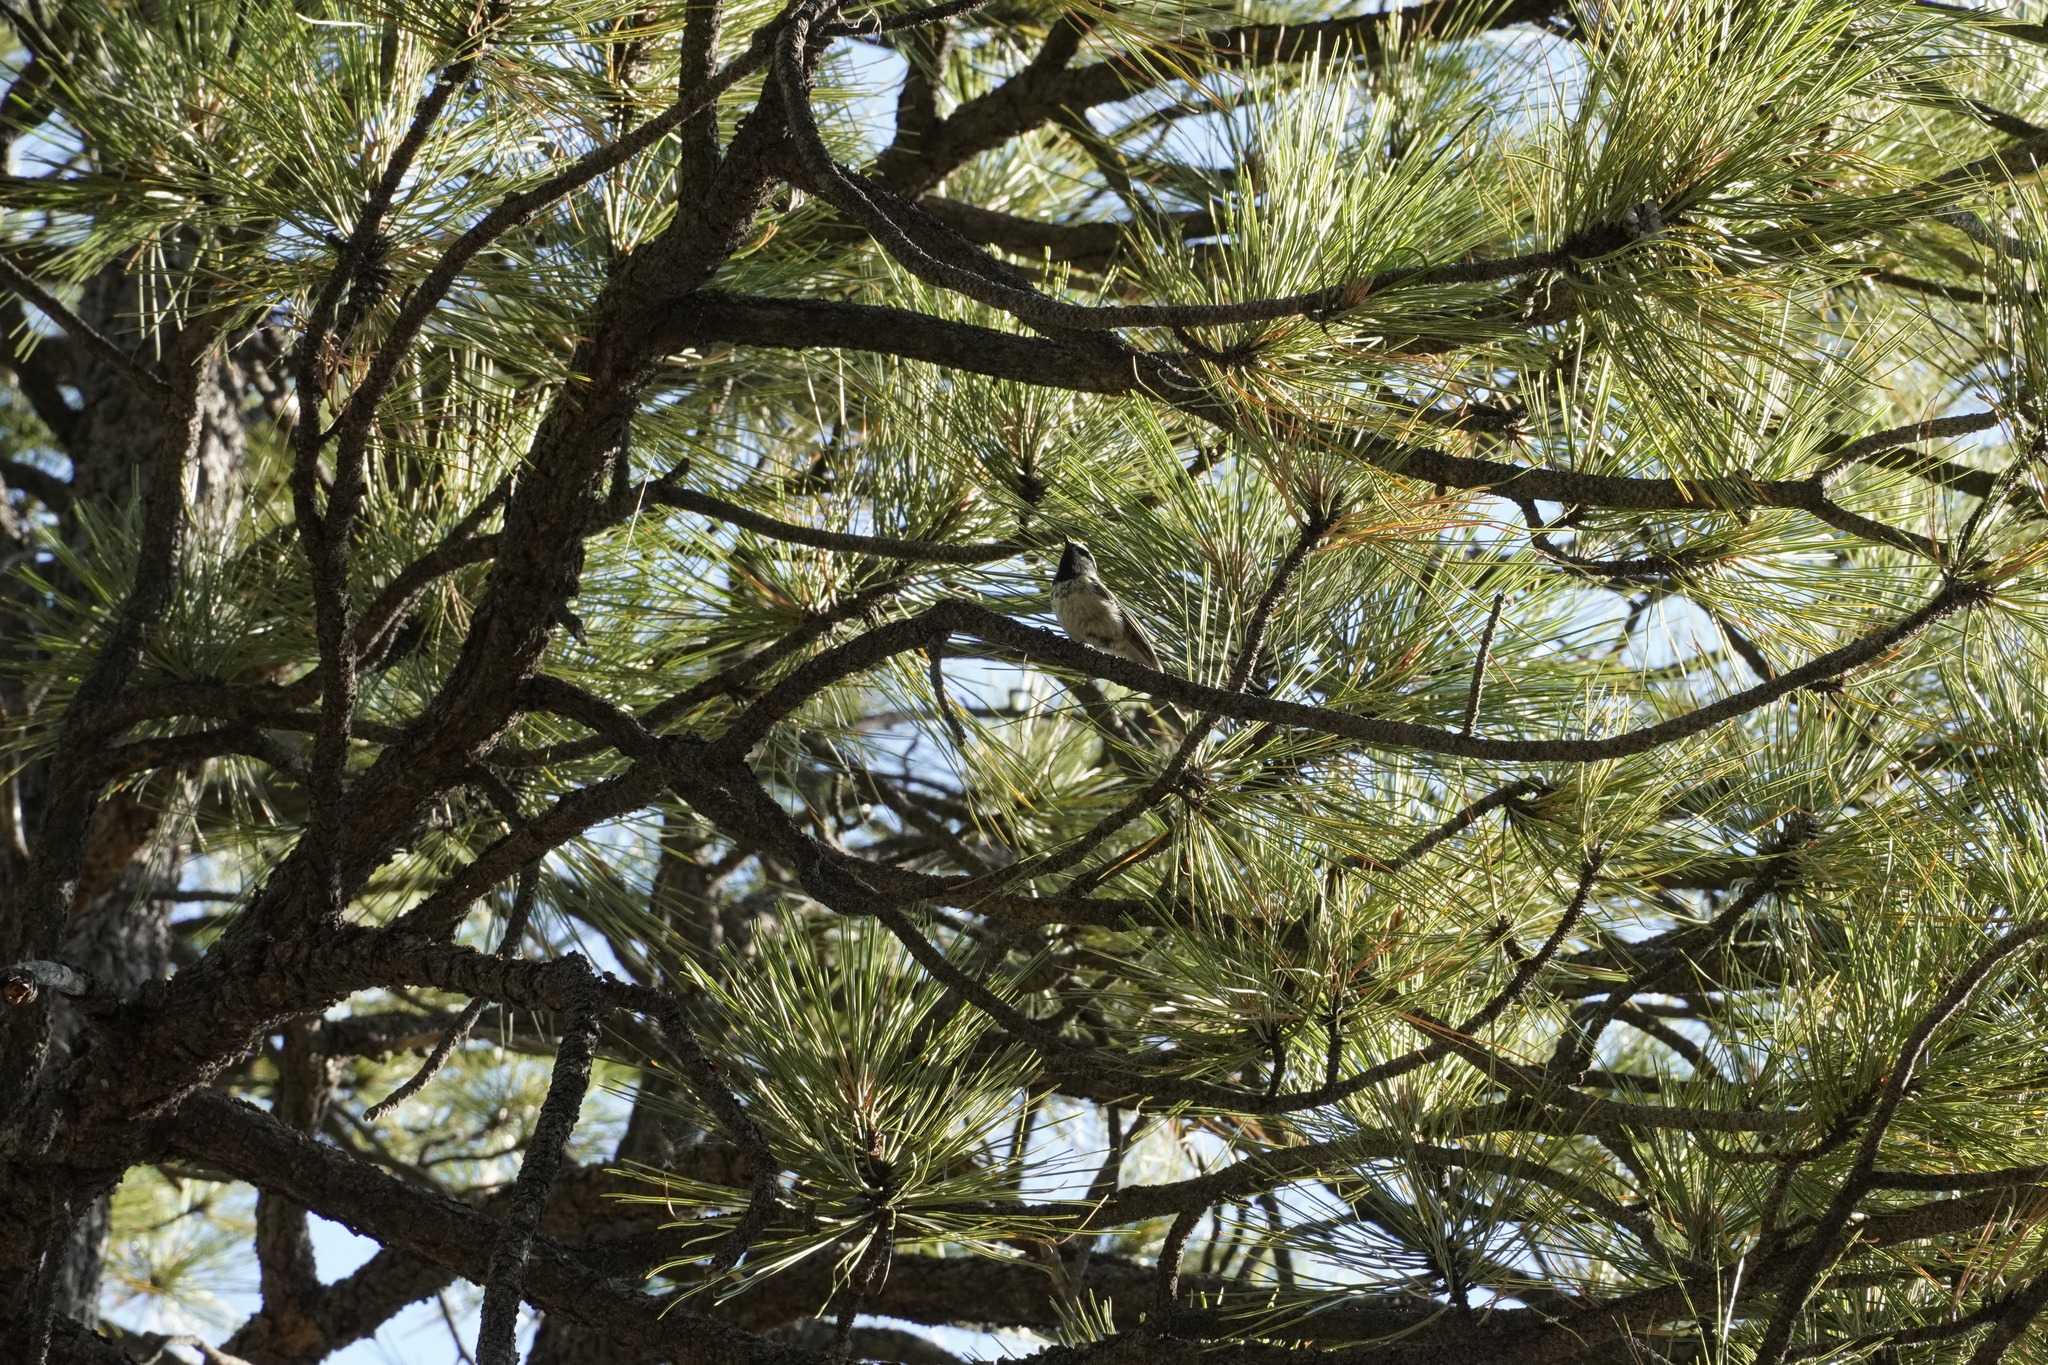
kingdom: Animalia
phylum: Chordata
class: Aves
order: Passeriformes
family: Paridae
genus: Poecile
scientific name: Poecile gambeli
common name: Mountain chickadee
